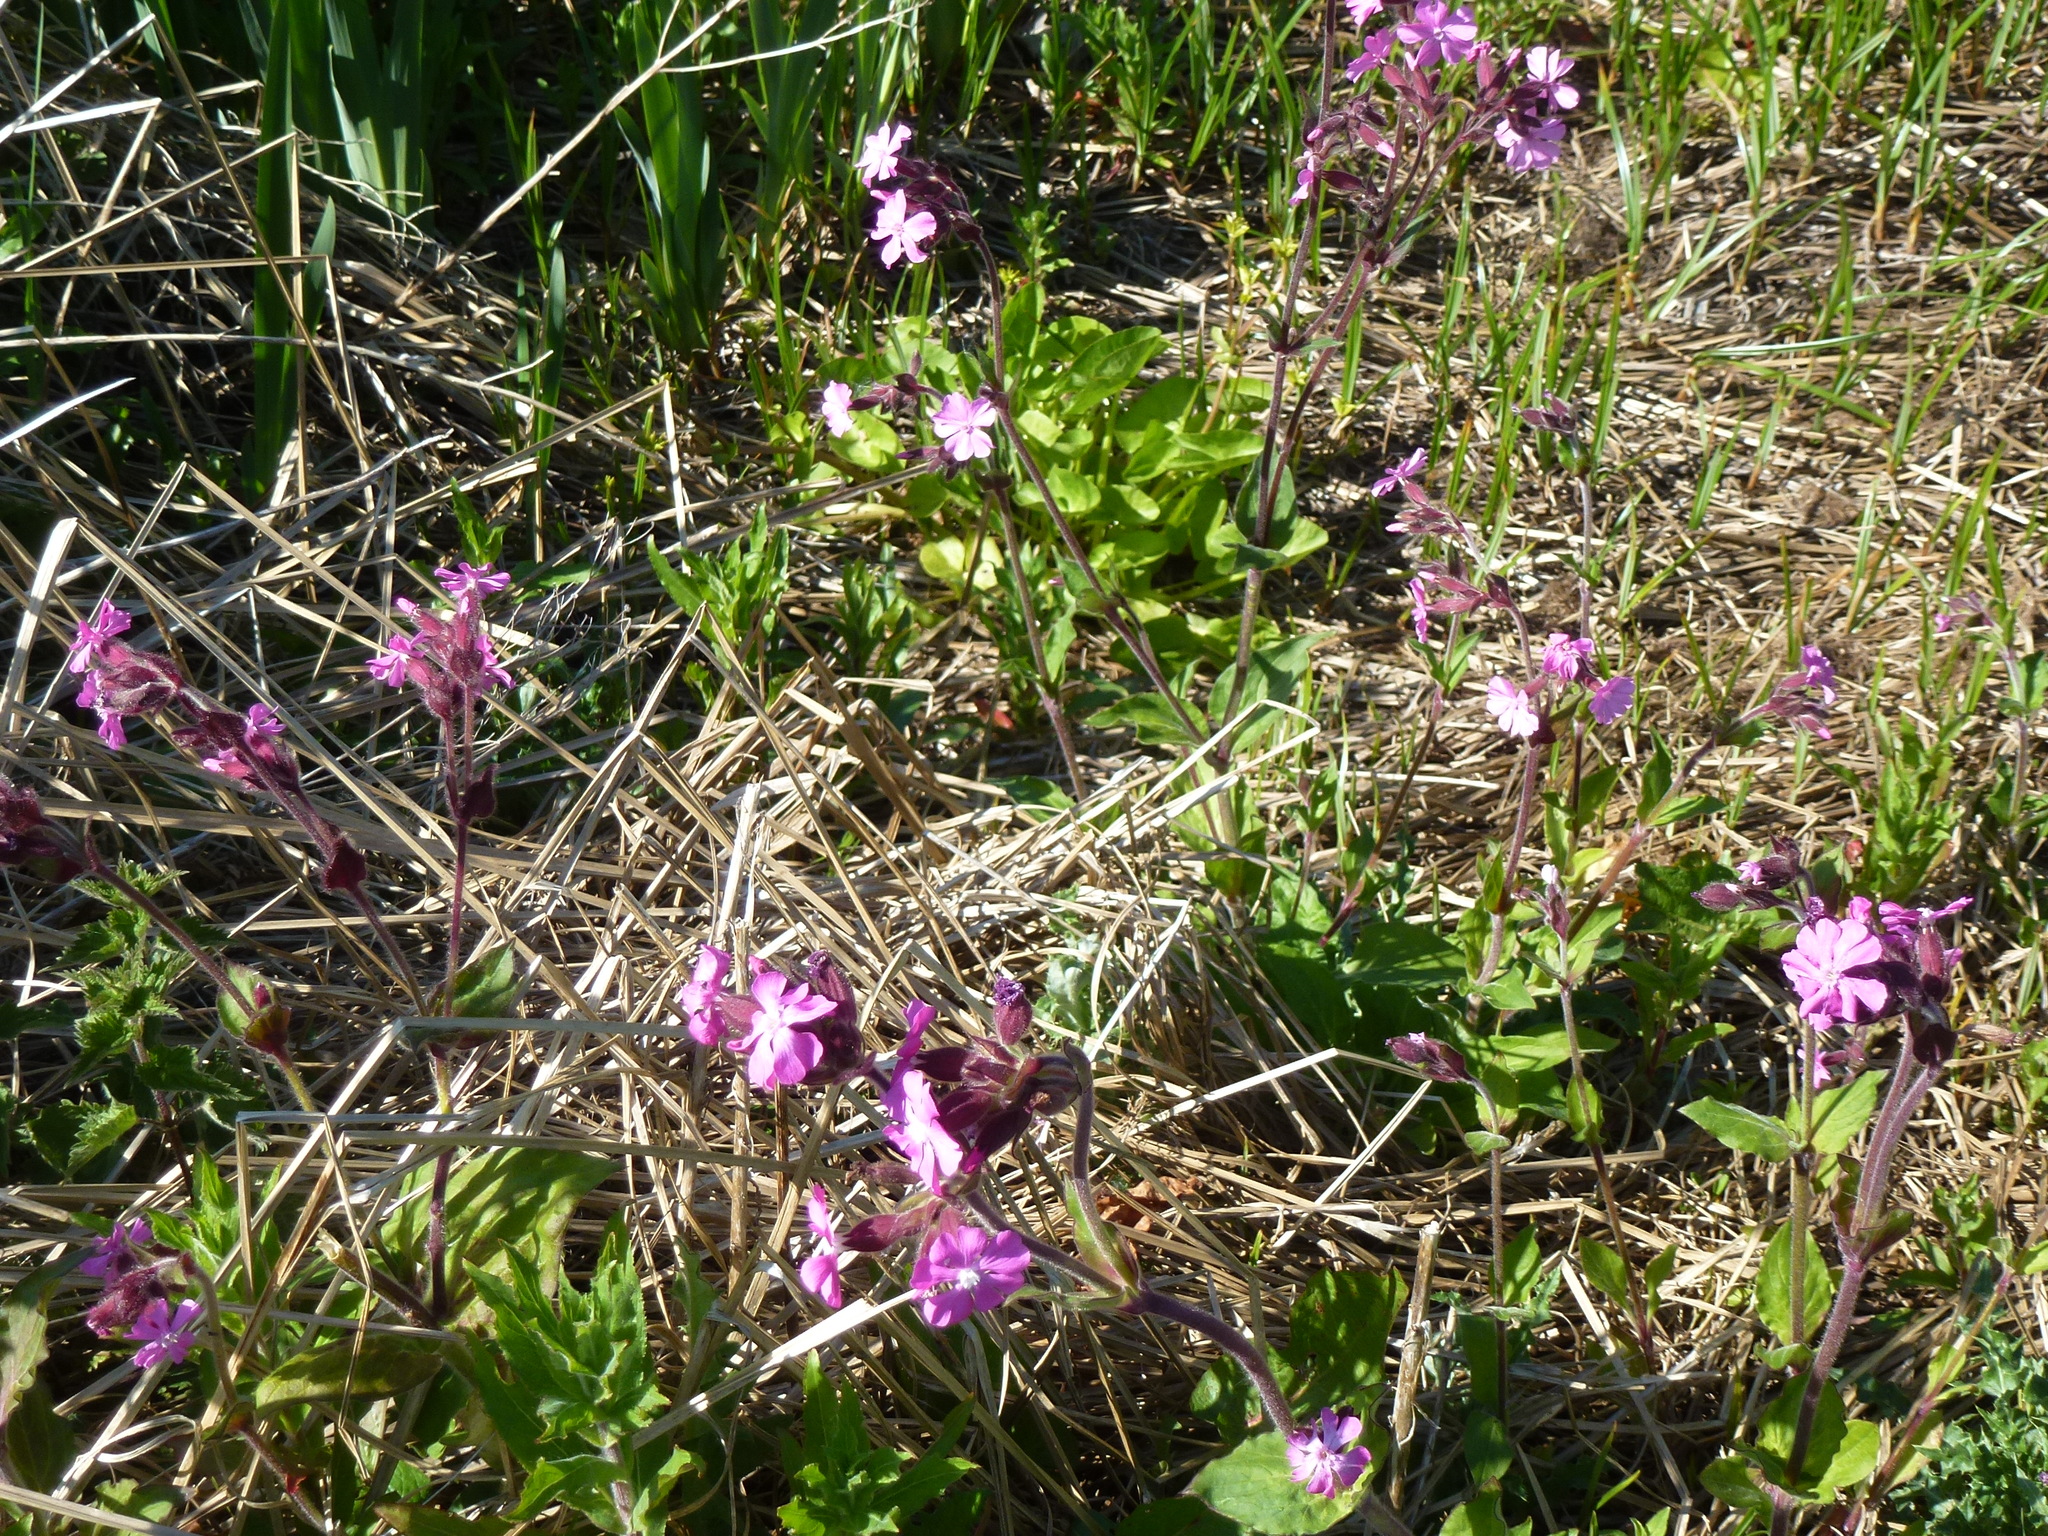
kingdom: Plantae
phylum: Tracheophyta
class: Magnoliopsida
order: Caryophyllales
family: Caryophyllaceae
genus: Silene
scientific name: Silene dioica
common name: Red campion
